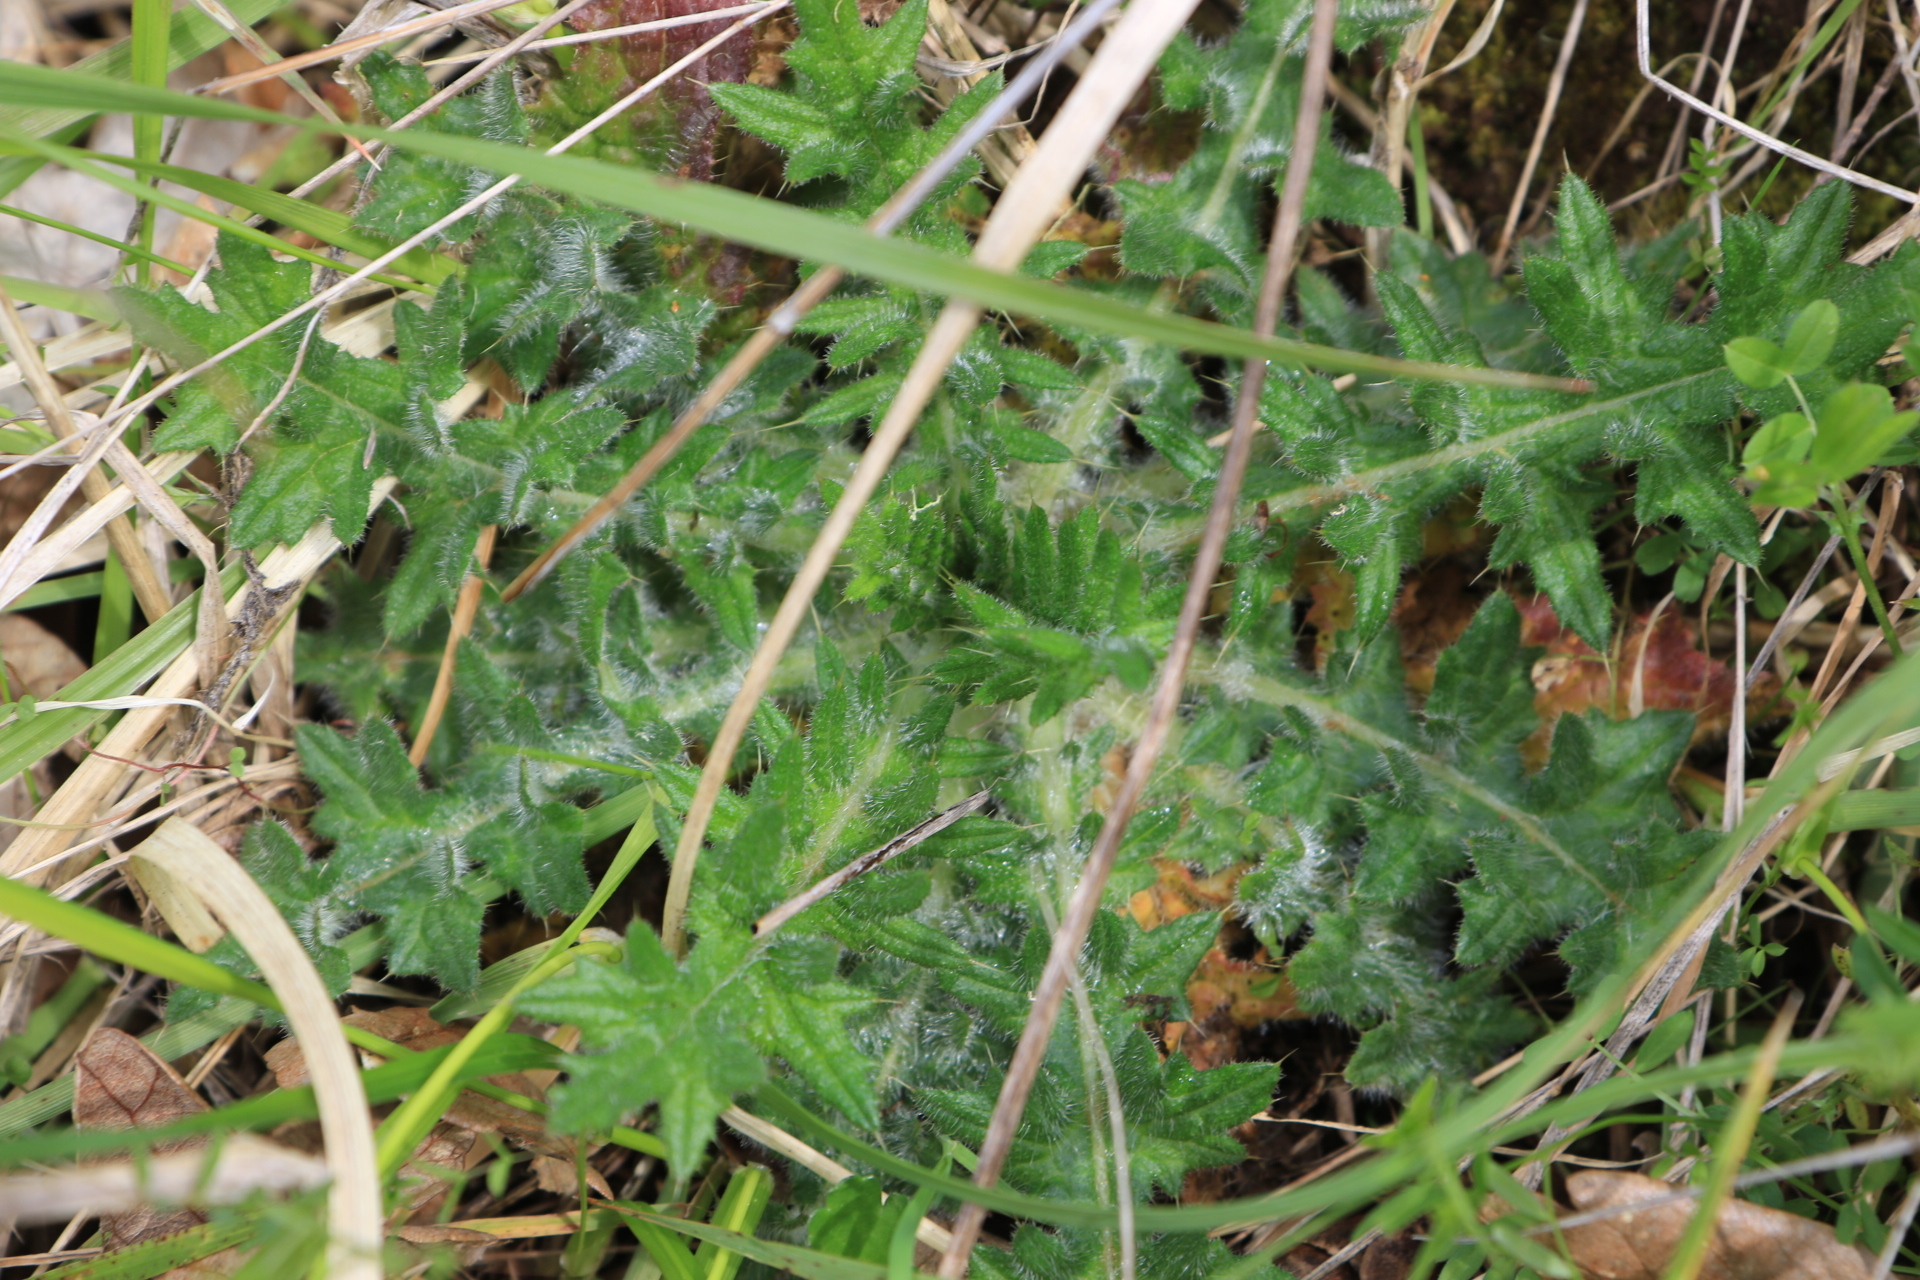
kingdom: Plantae
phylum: Tracheophyta
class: Magnoliopsida
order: Asterales
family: Asteraceae
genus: Cirsium
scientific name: Cirsium vulgare
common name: Bull thistle
